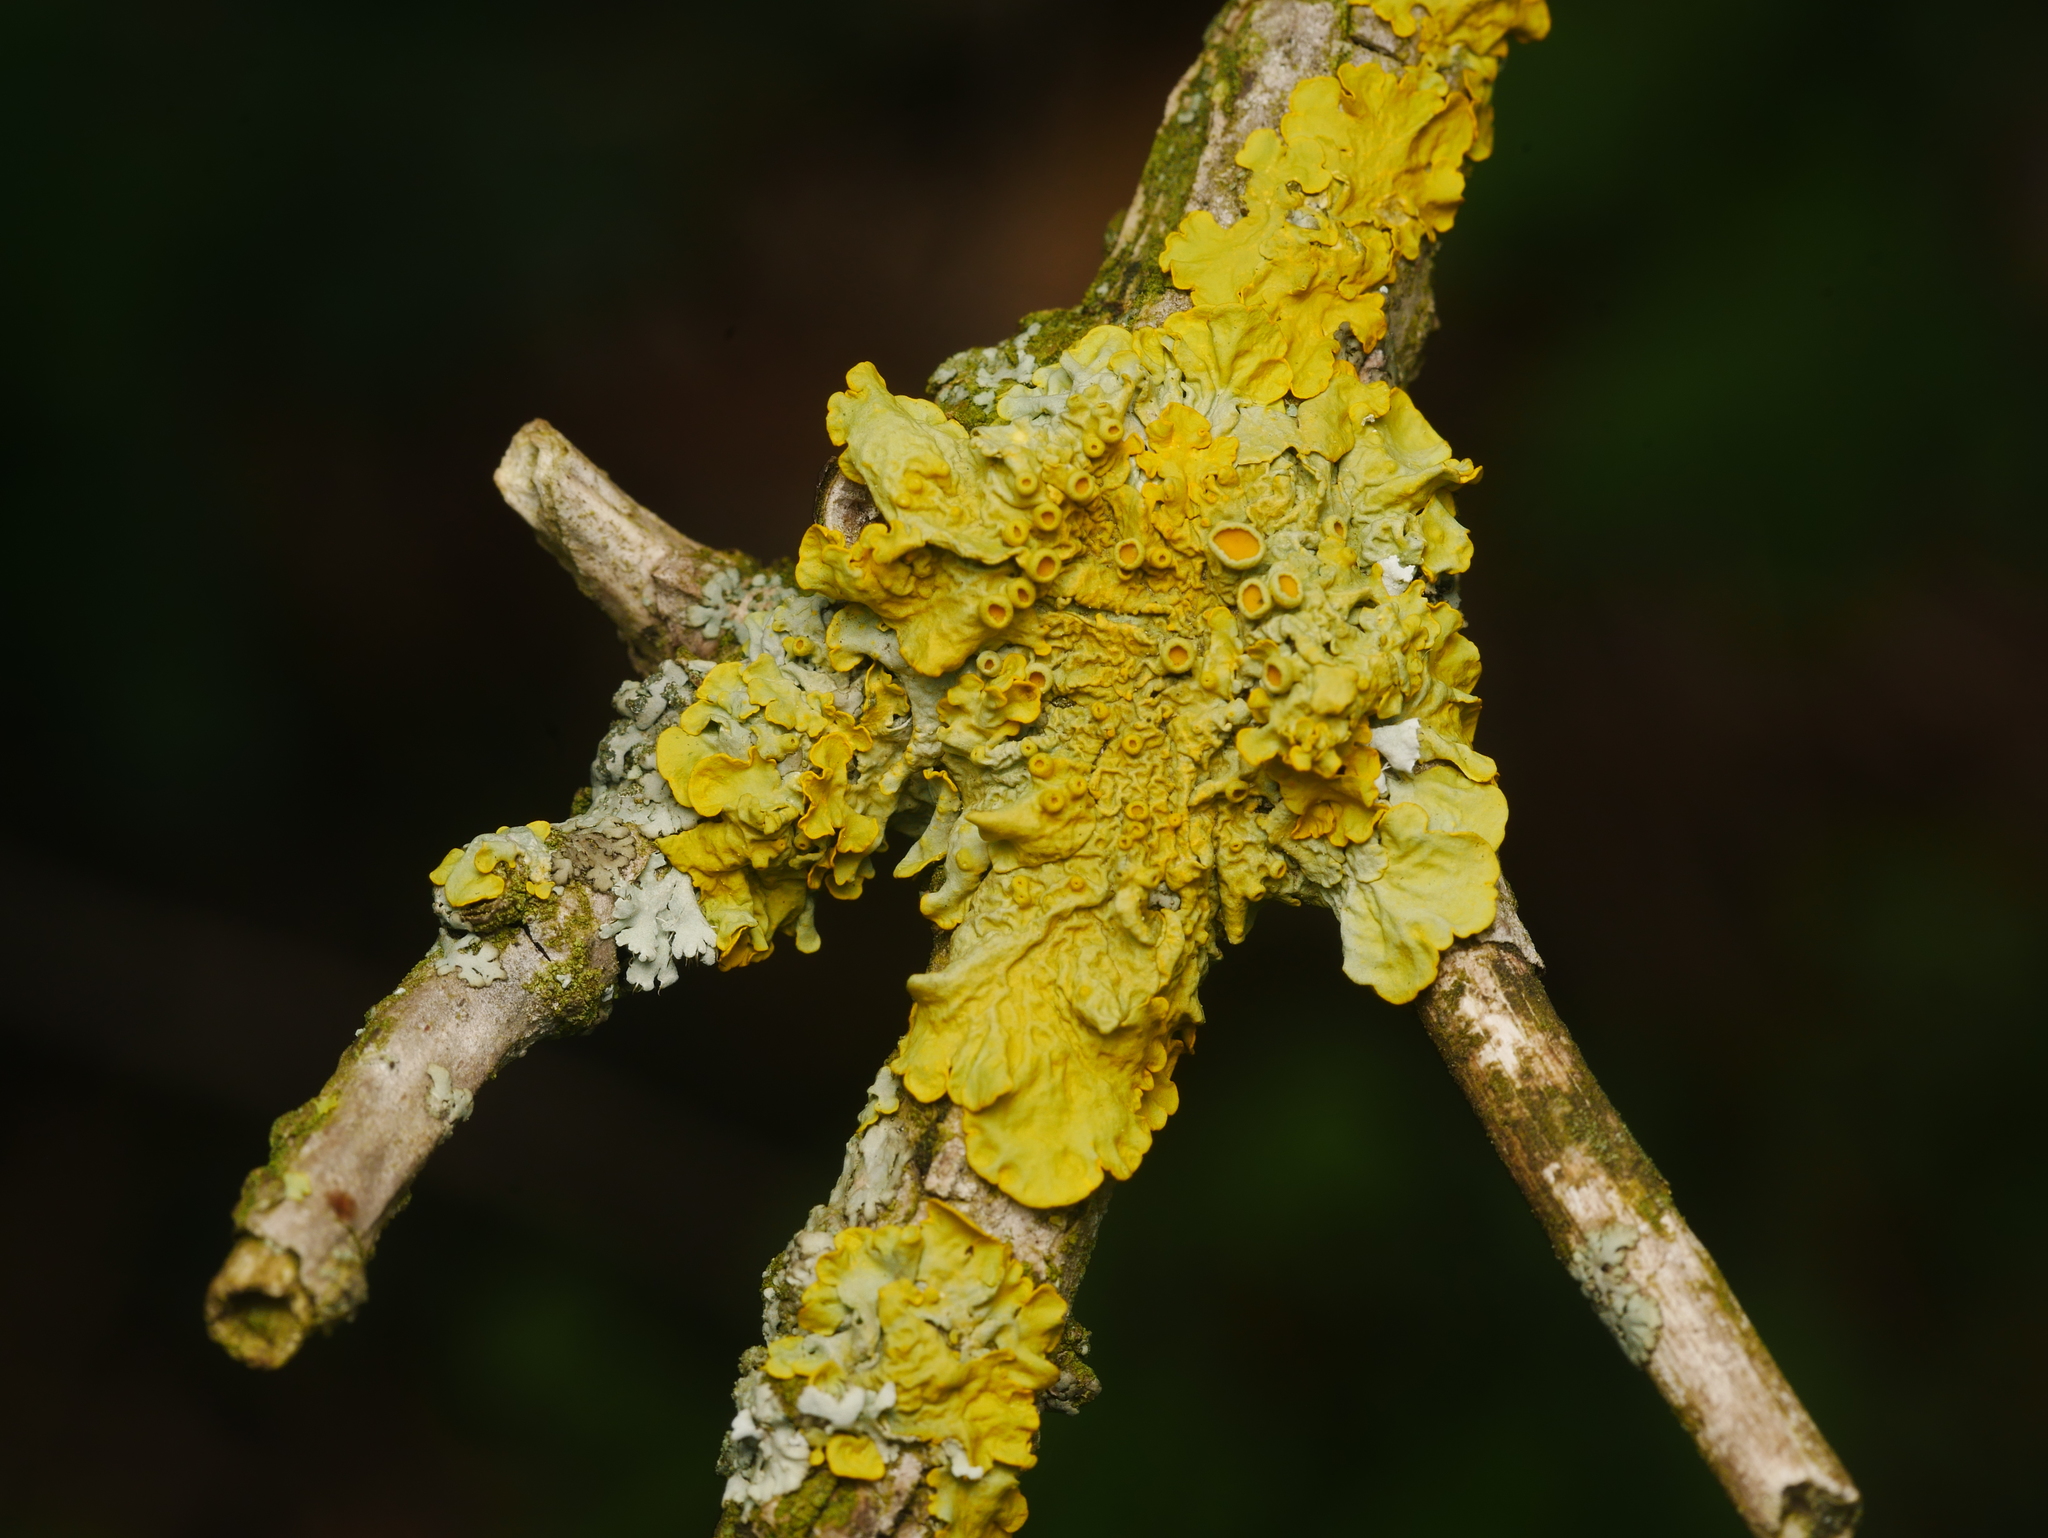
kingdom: Fungi
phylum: Ascomycota
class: Lecanoromycetes
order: Teloschistales
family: Teloschistaceae
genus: Xanthoria
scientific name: Xanthoria parietina
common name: Common orange lichen
